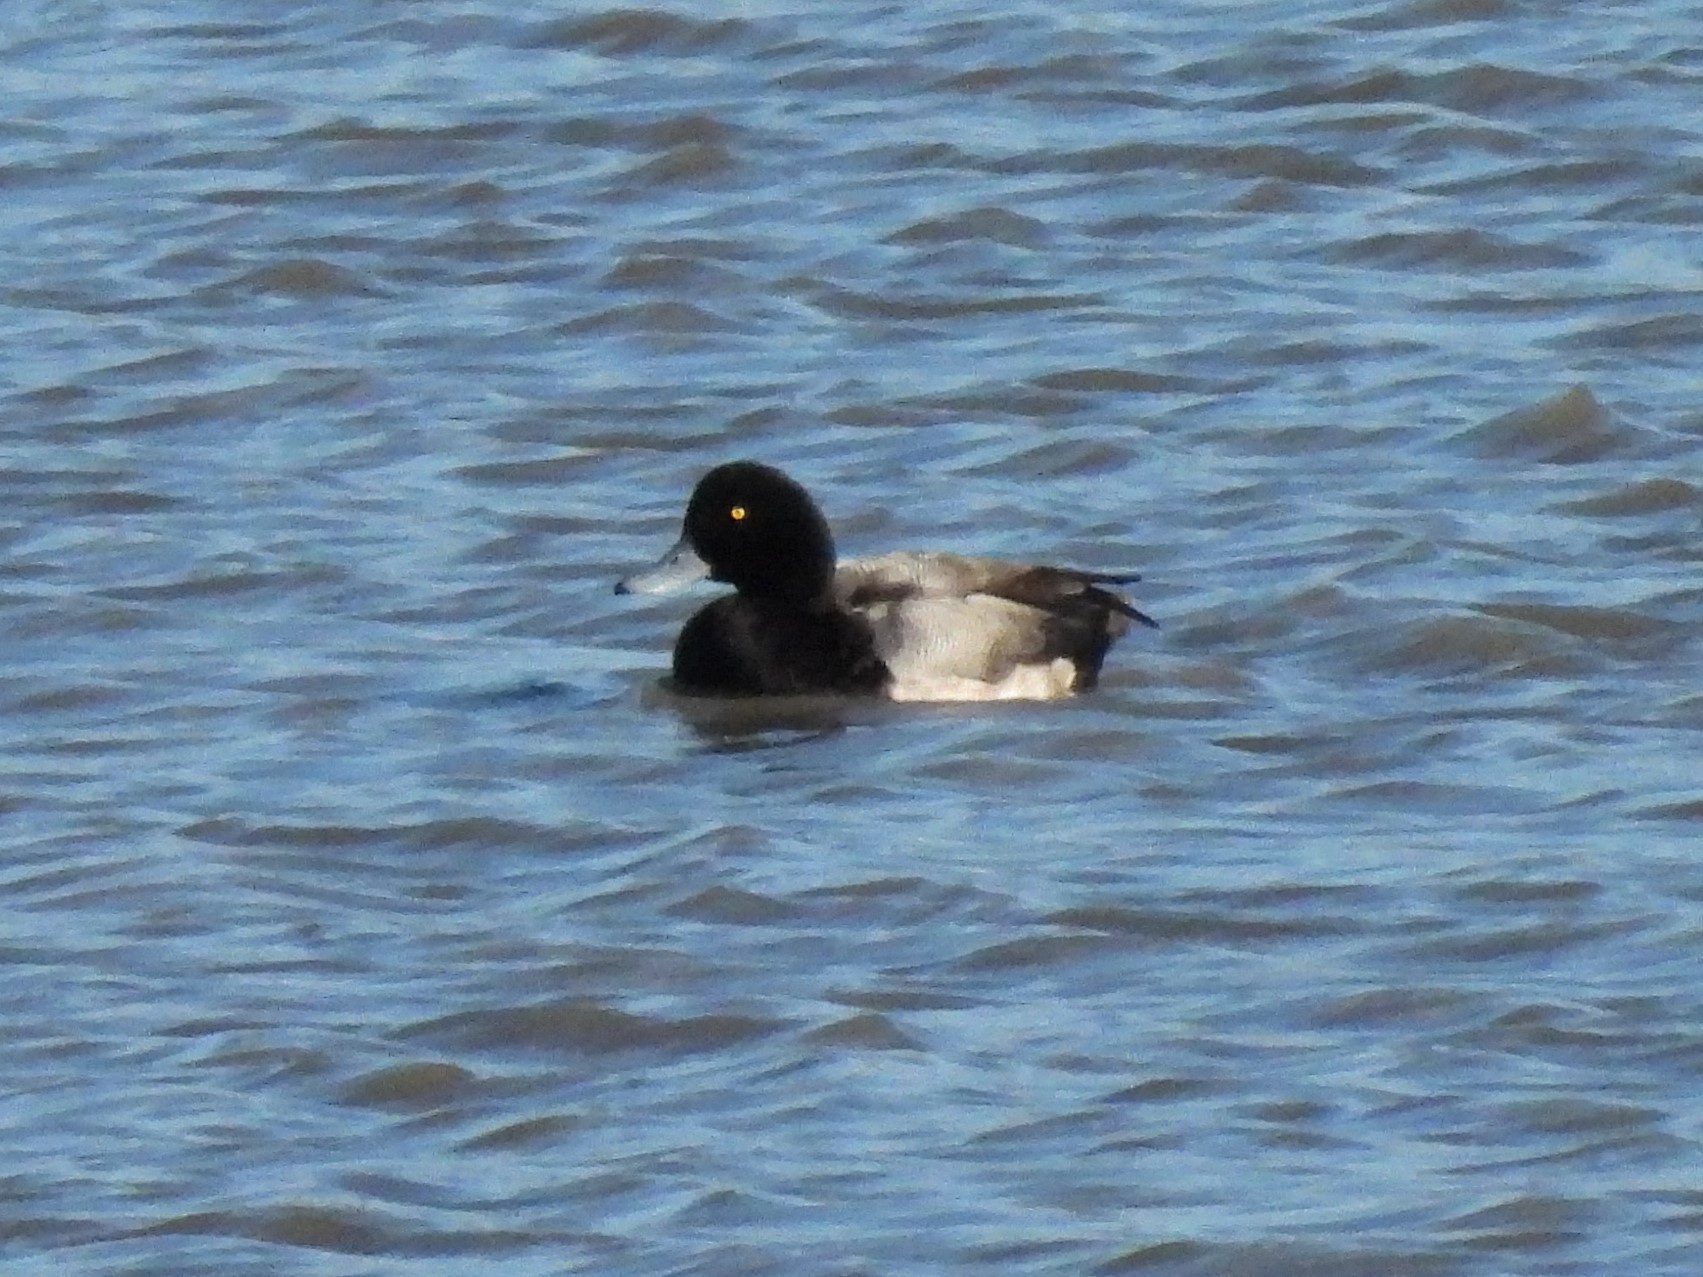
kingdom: Animalia
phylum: Chordata
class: Aves
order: Anseriformes
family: Anatidae
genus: Aythya
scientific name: Aythya marila
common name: Greater scaup
